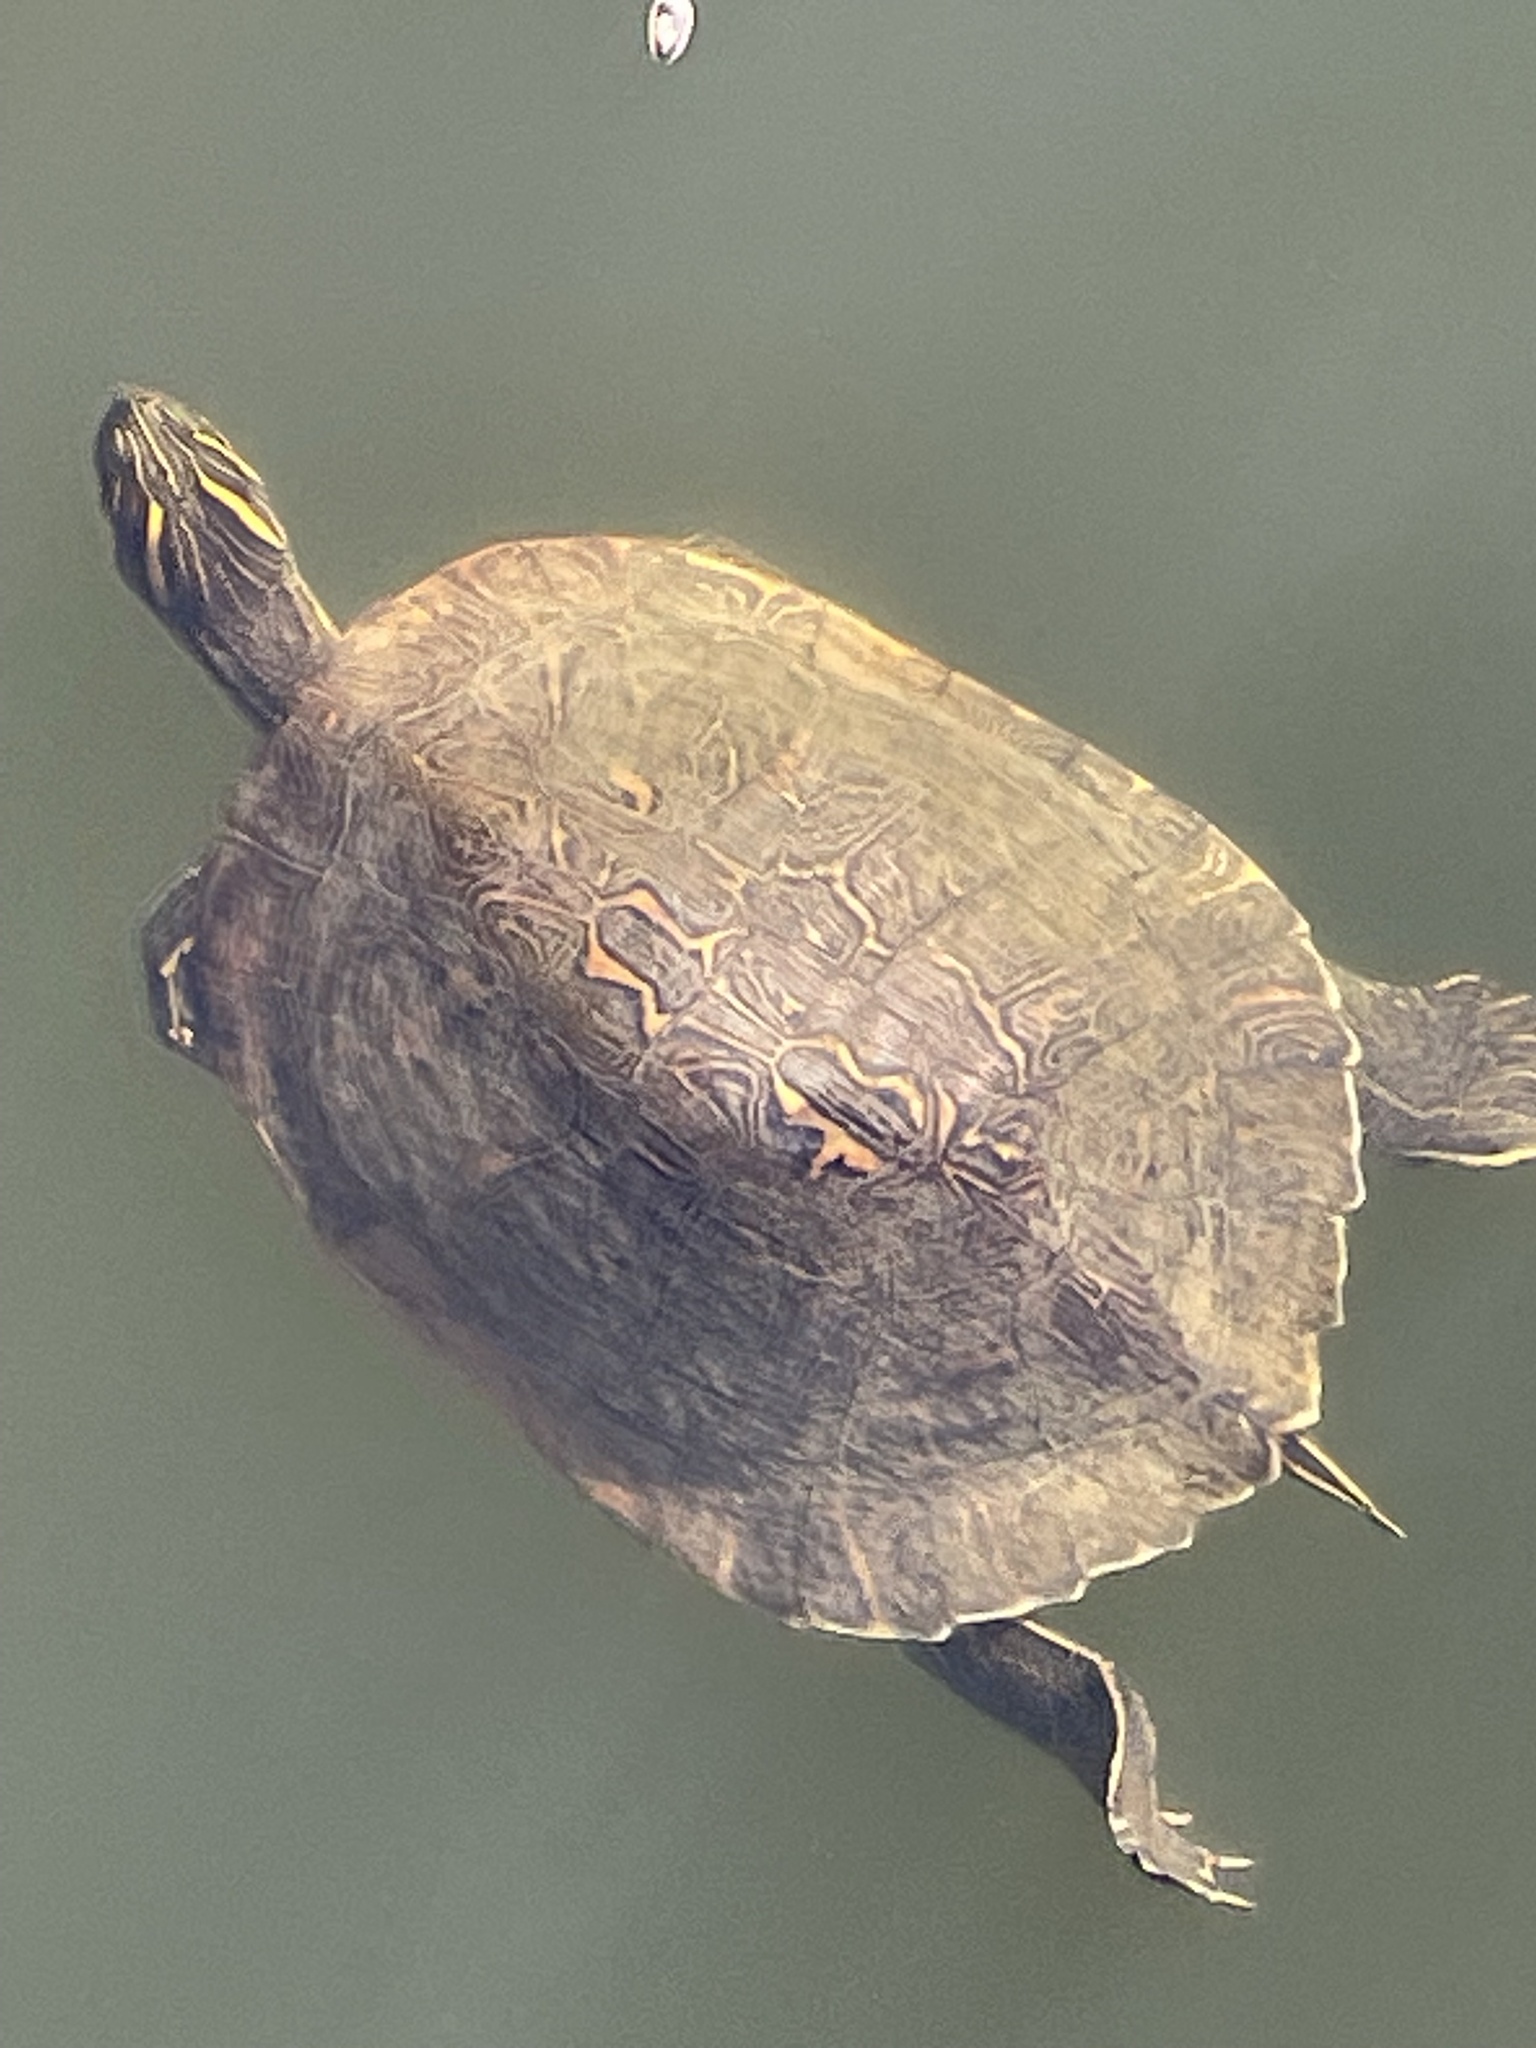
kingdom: Animalia
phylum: Chordata
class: Testudines
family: Emydidae
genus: Pseudemys
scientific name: Pseudemys concinna
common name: Eastern river cooter
